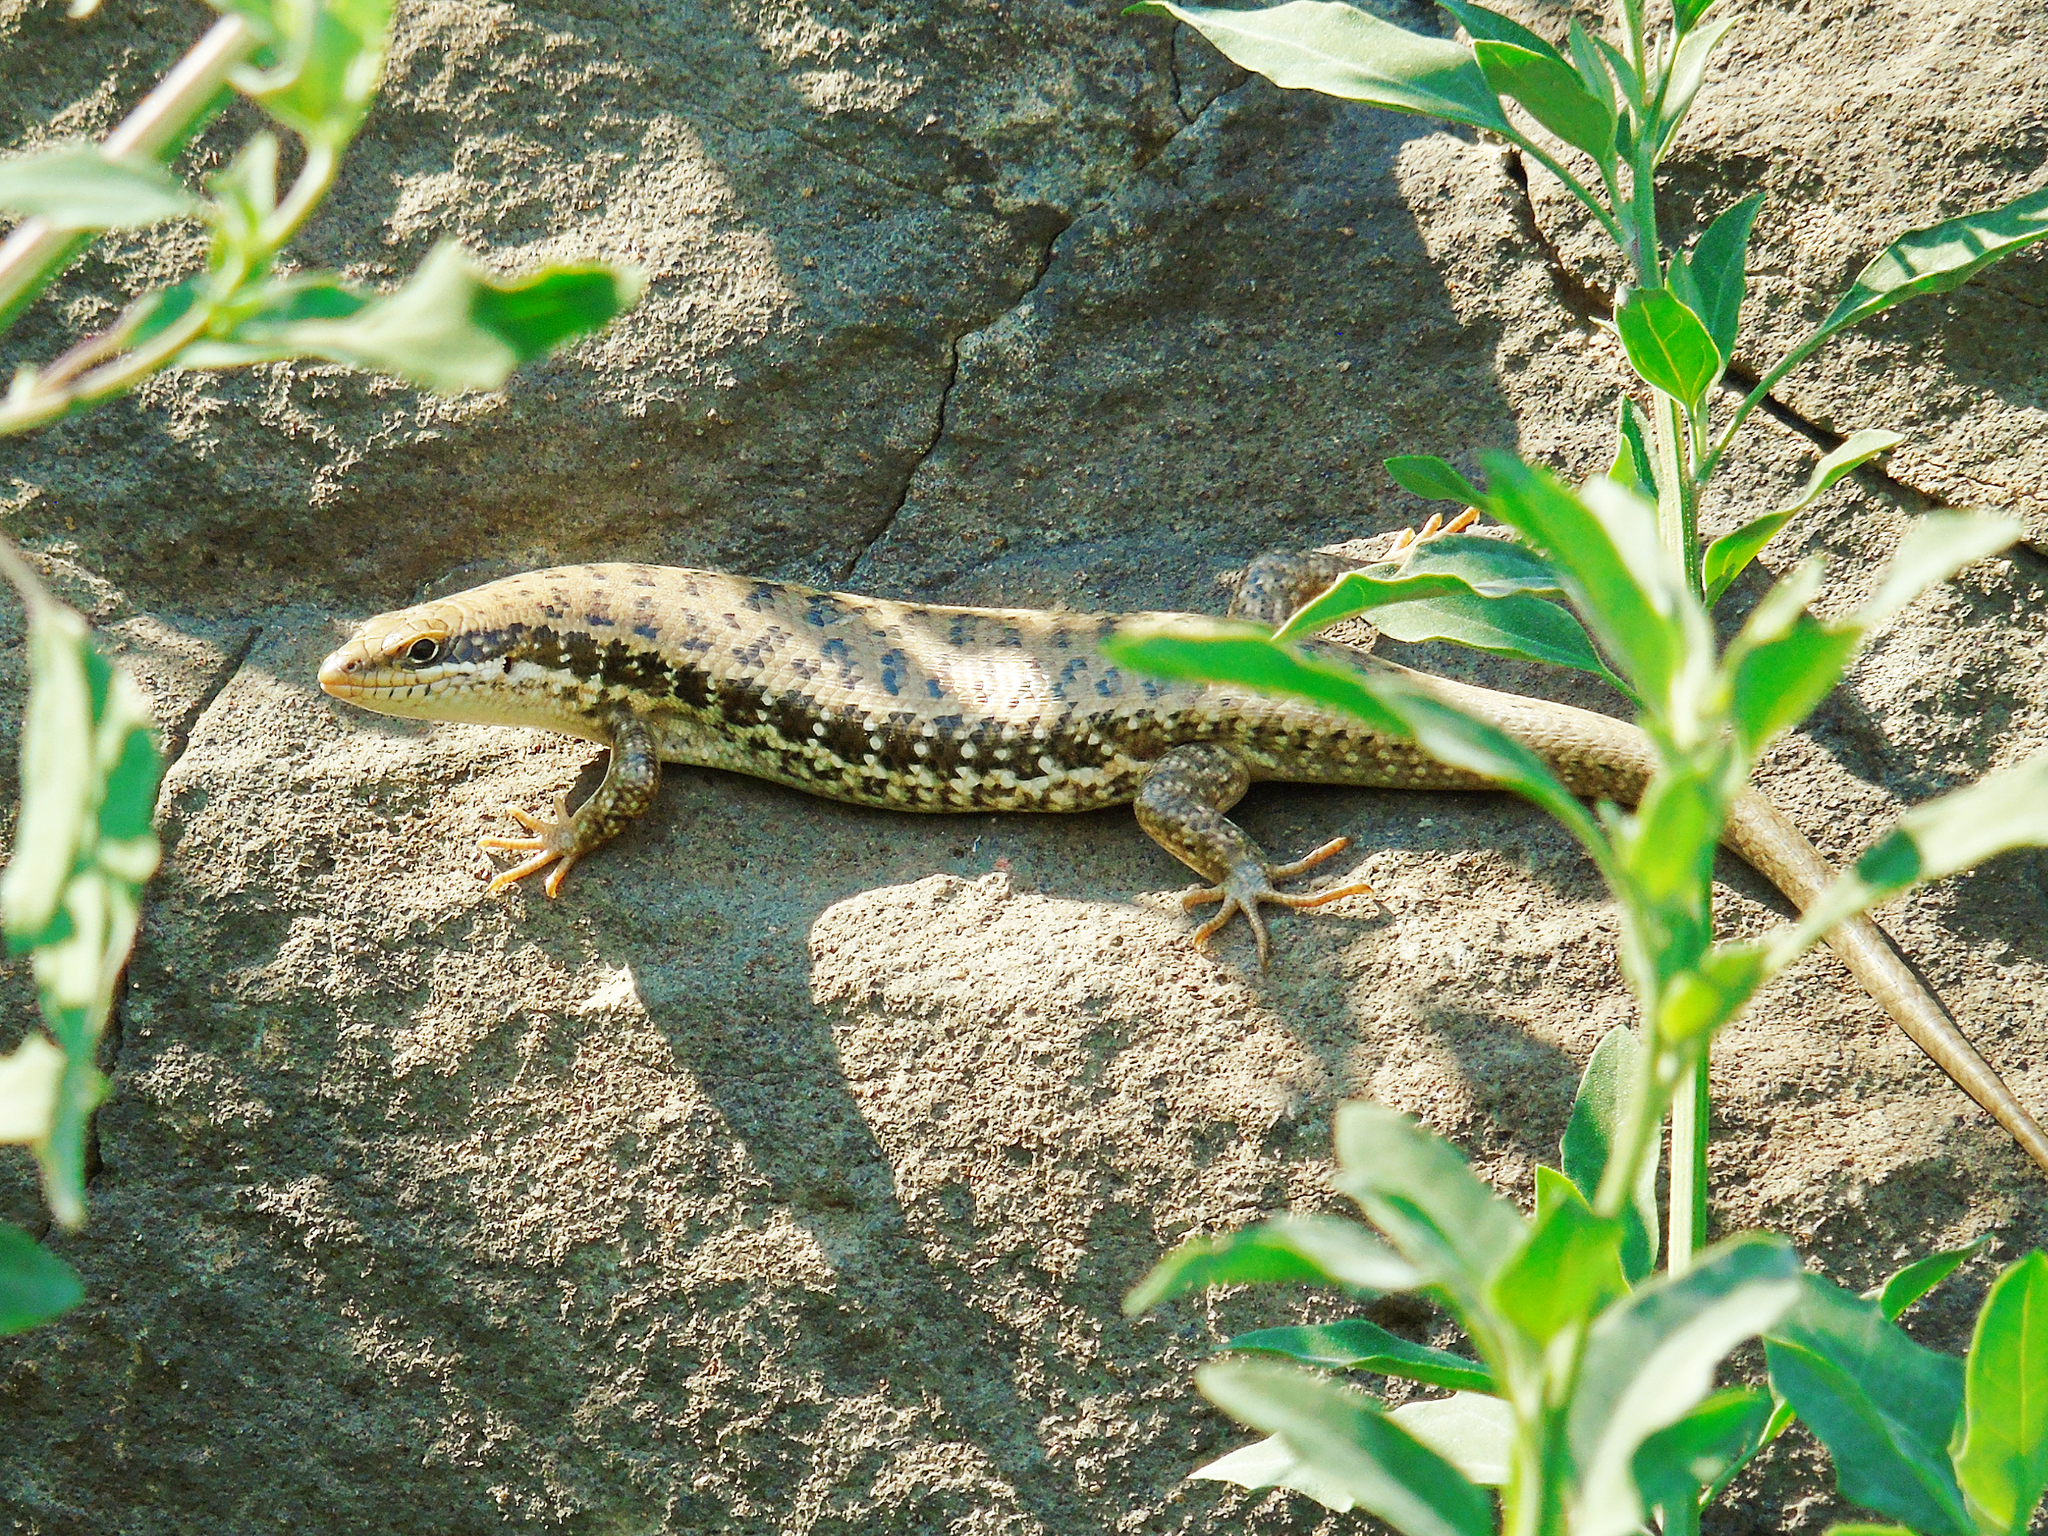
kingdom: Animalia
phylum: Chordata
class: Squamata
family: Scincidae
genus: Heremites
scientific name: Heremites auratus
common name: Golden grass mabuya
